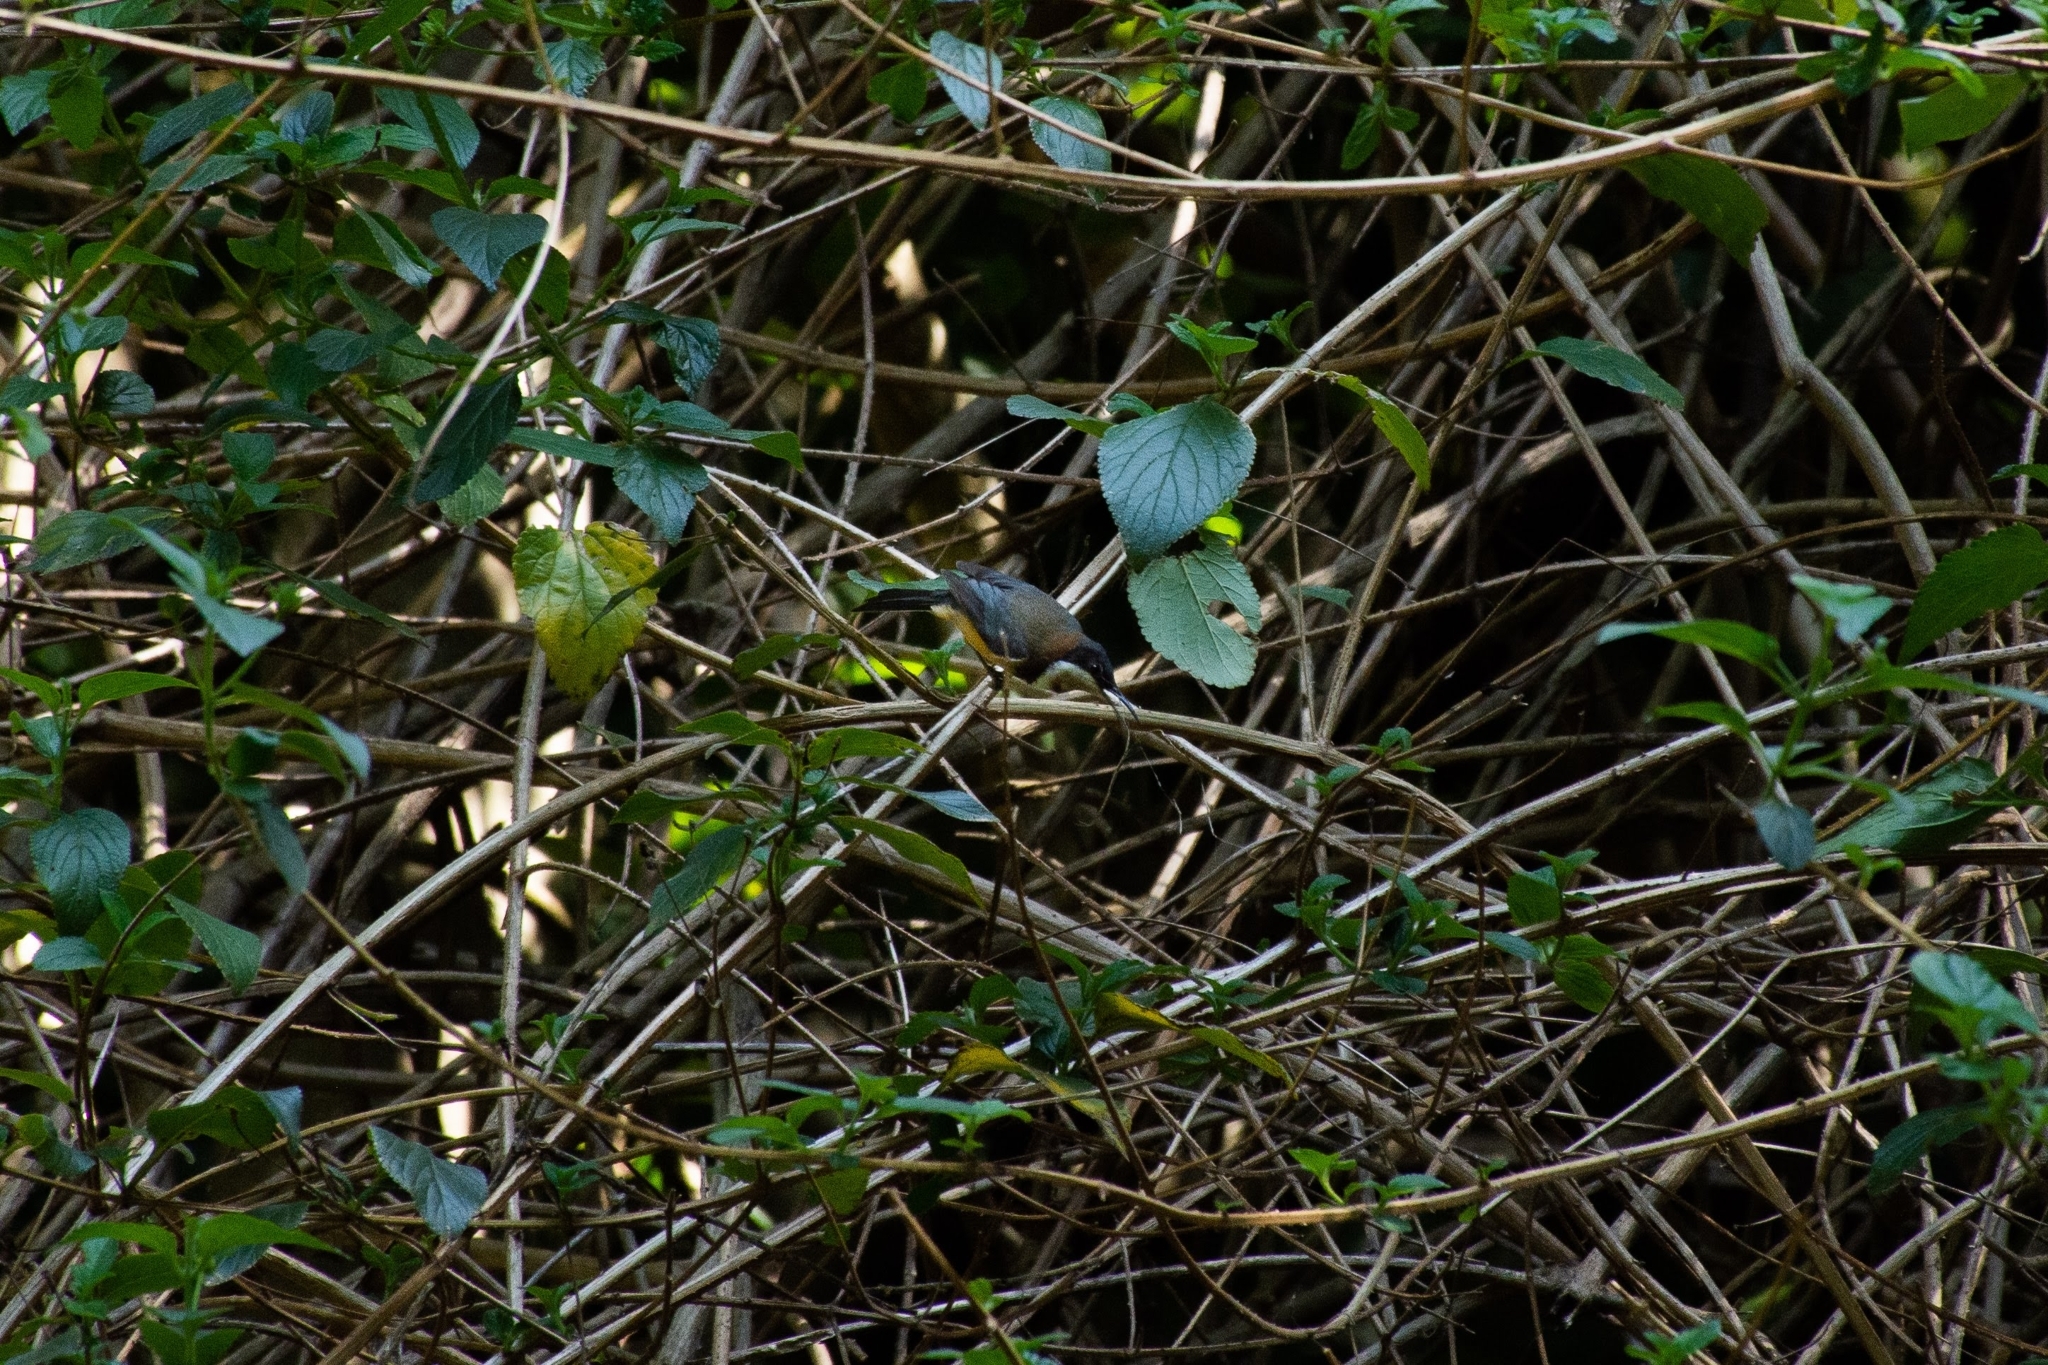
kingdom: Animalia
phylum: Chordata
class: Aves
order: Passeriformes
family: Meliphagidae
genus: Acanthorhynchus
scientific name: Acanthorhynchus tenuirostris
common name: Eastern spinebill
